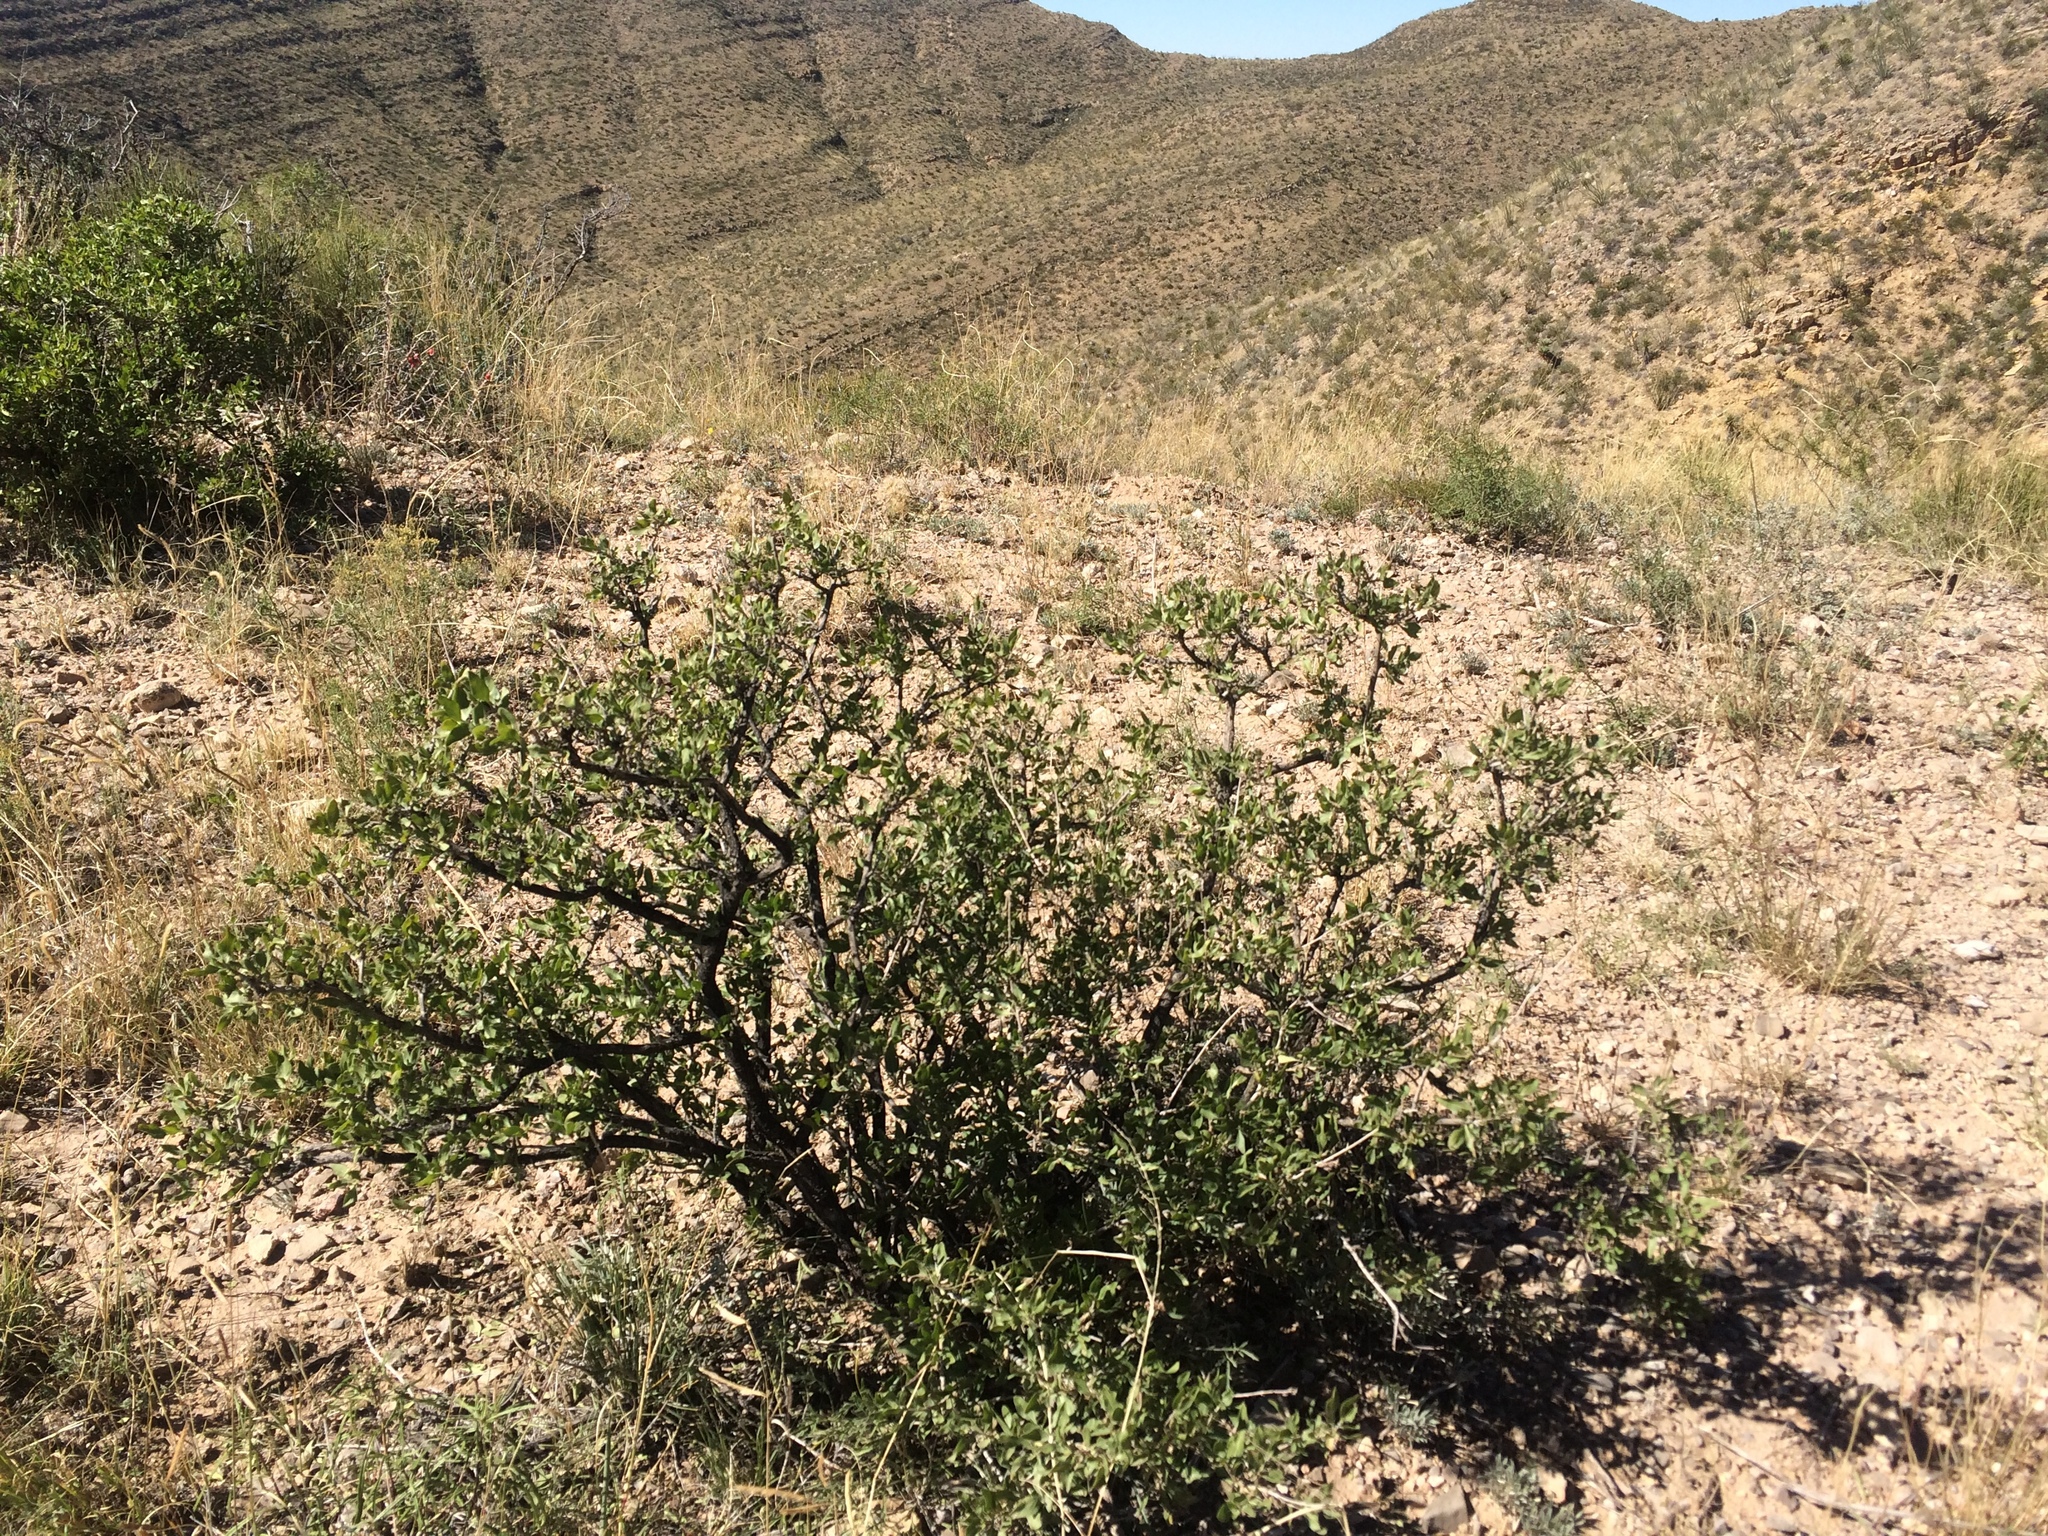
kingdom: Plantae
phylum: Tracheophyta
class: Magnoliopsida
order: Asterales
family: Asteraceae
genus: Flourensia
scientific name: Flourensia cernua
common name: Varnishbush
